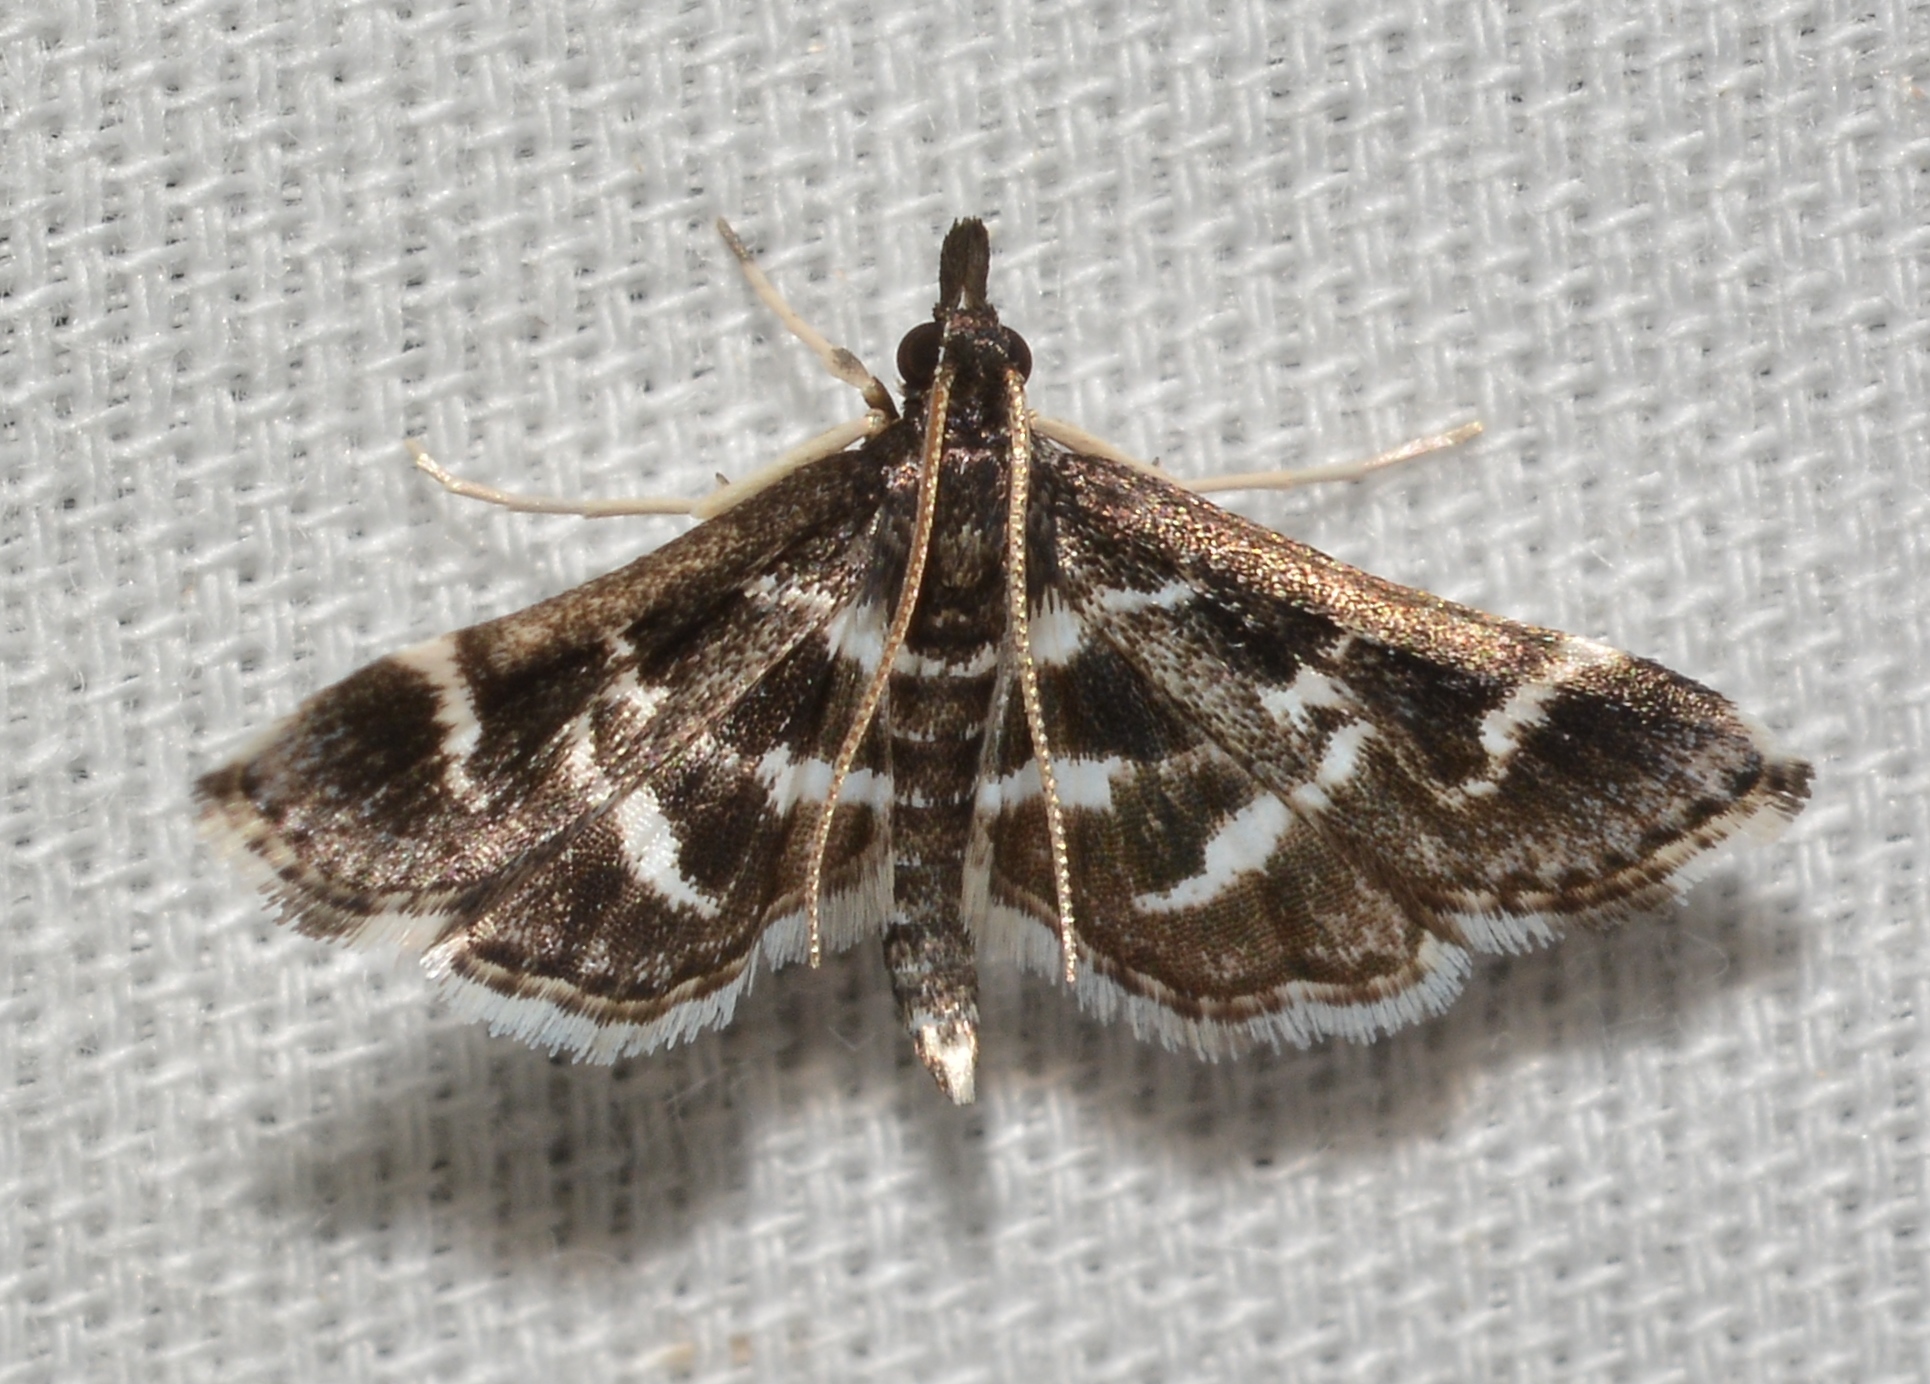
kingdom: Animalia
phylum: Arthropoda
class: Insecta
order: Lepidoptera
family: Crambidae
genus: Diasemiodes
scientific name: Diasemiodes janassialis
